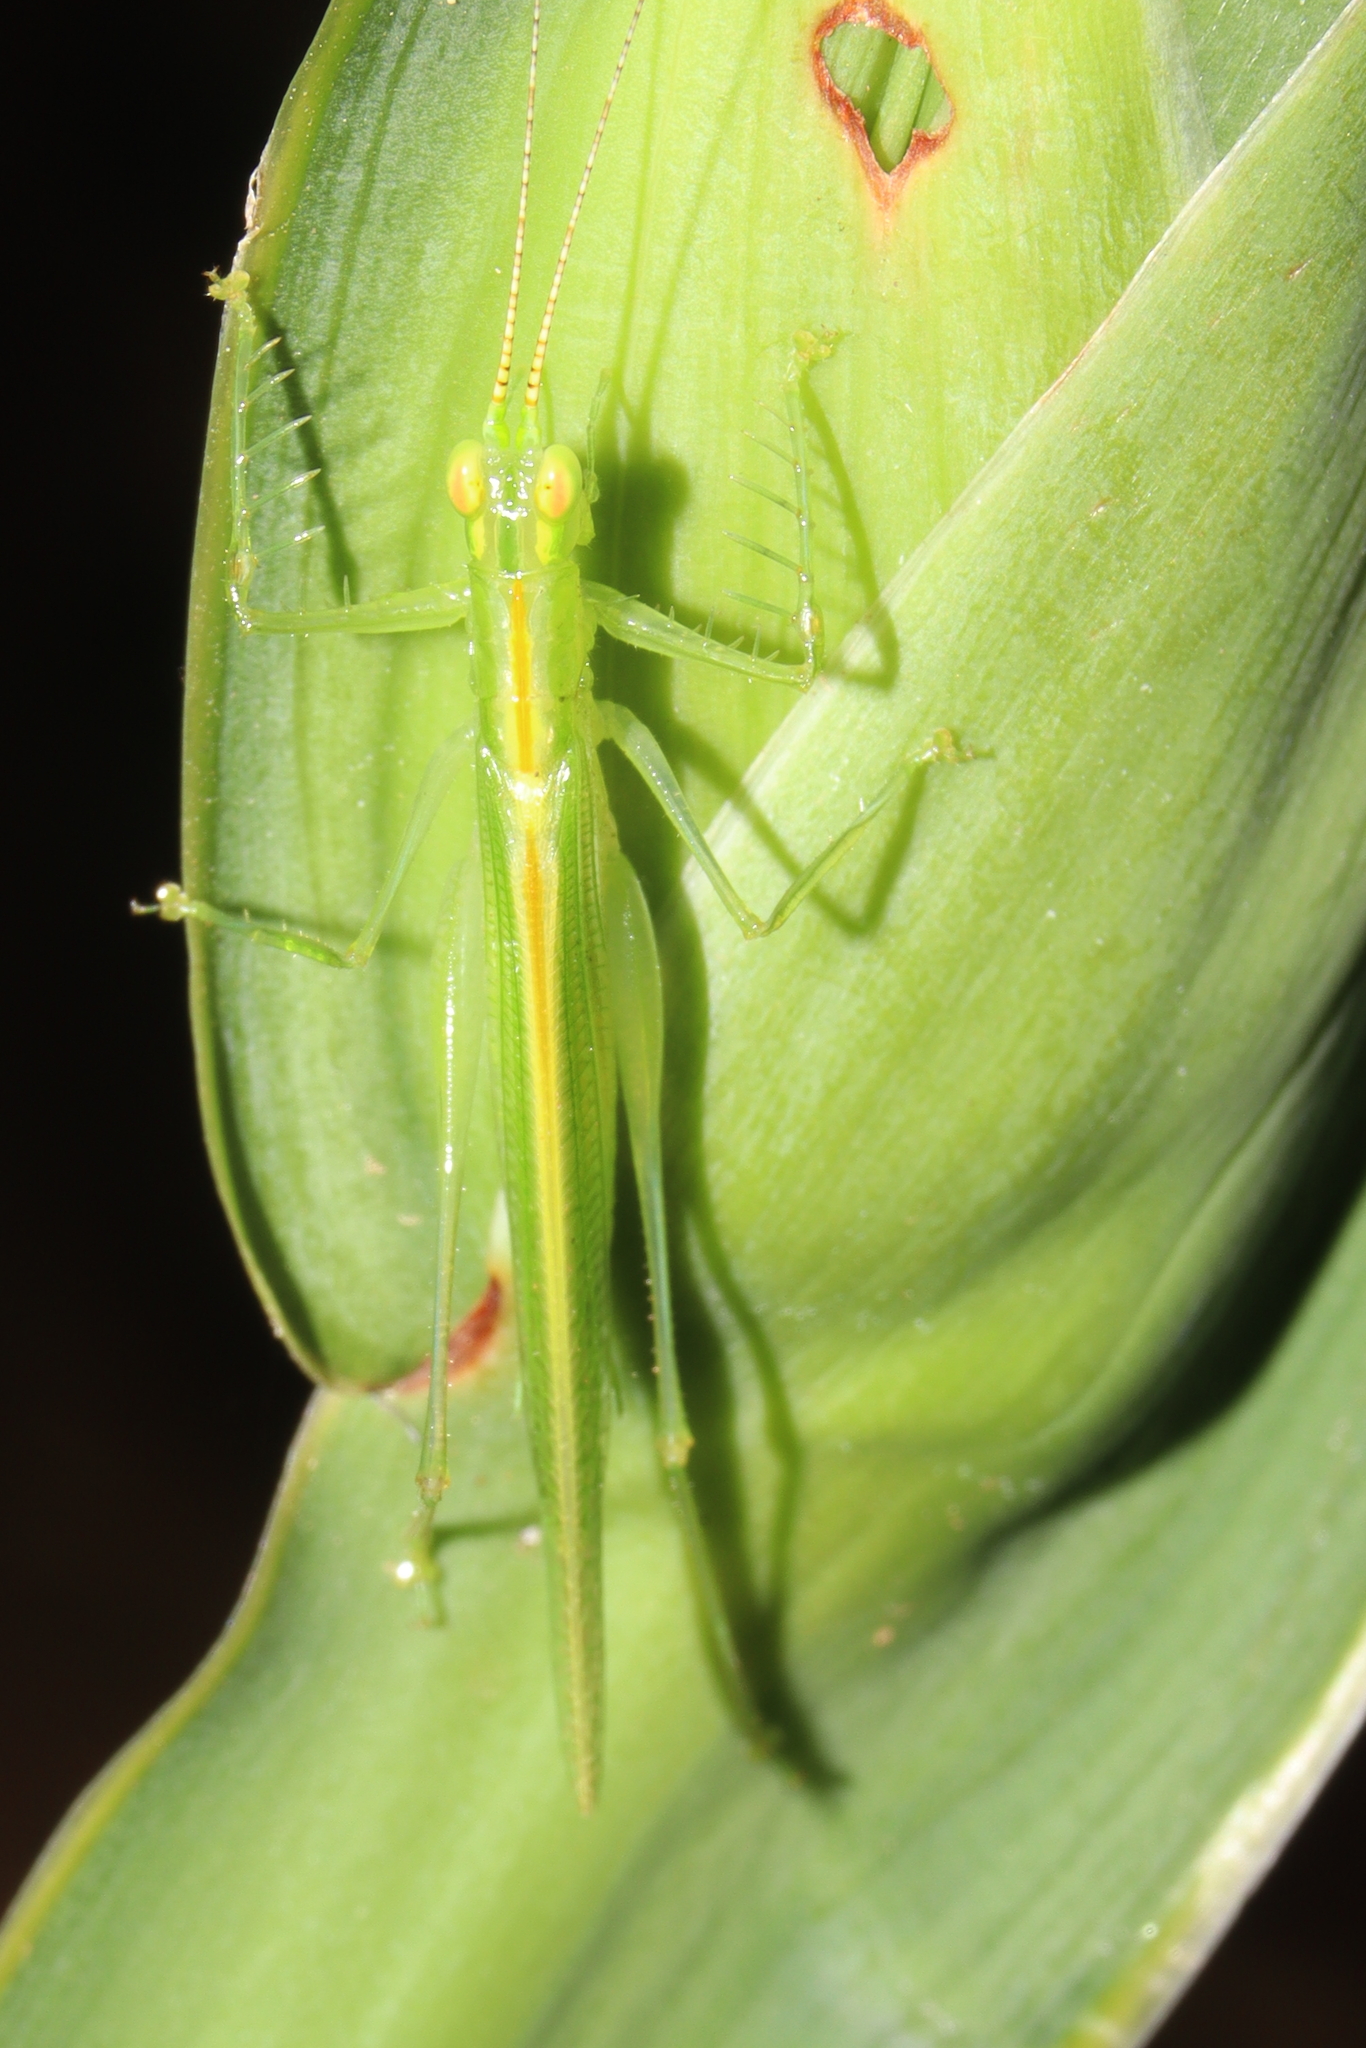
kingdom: Animalia
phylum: Arthropoda
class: Insecta
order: Orthoptera
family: Tettigoniidae
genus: Phlugis
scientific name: Phlugis ocraceovittata
